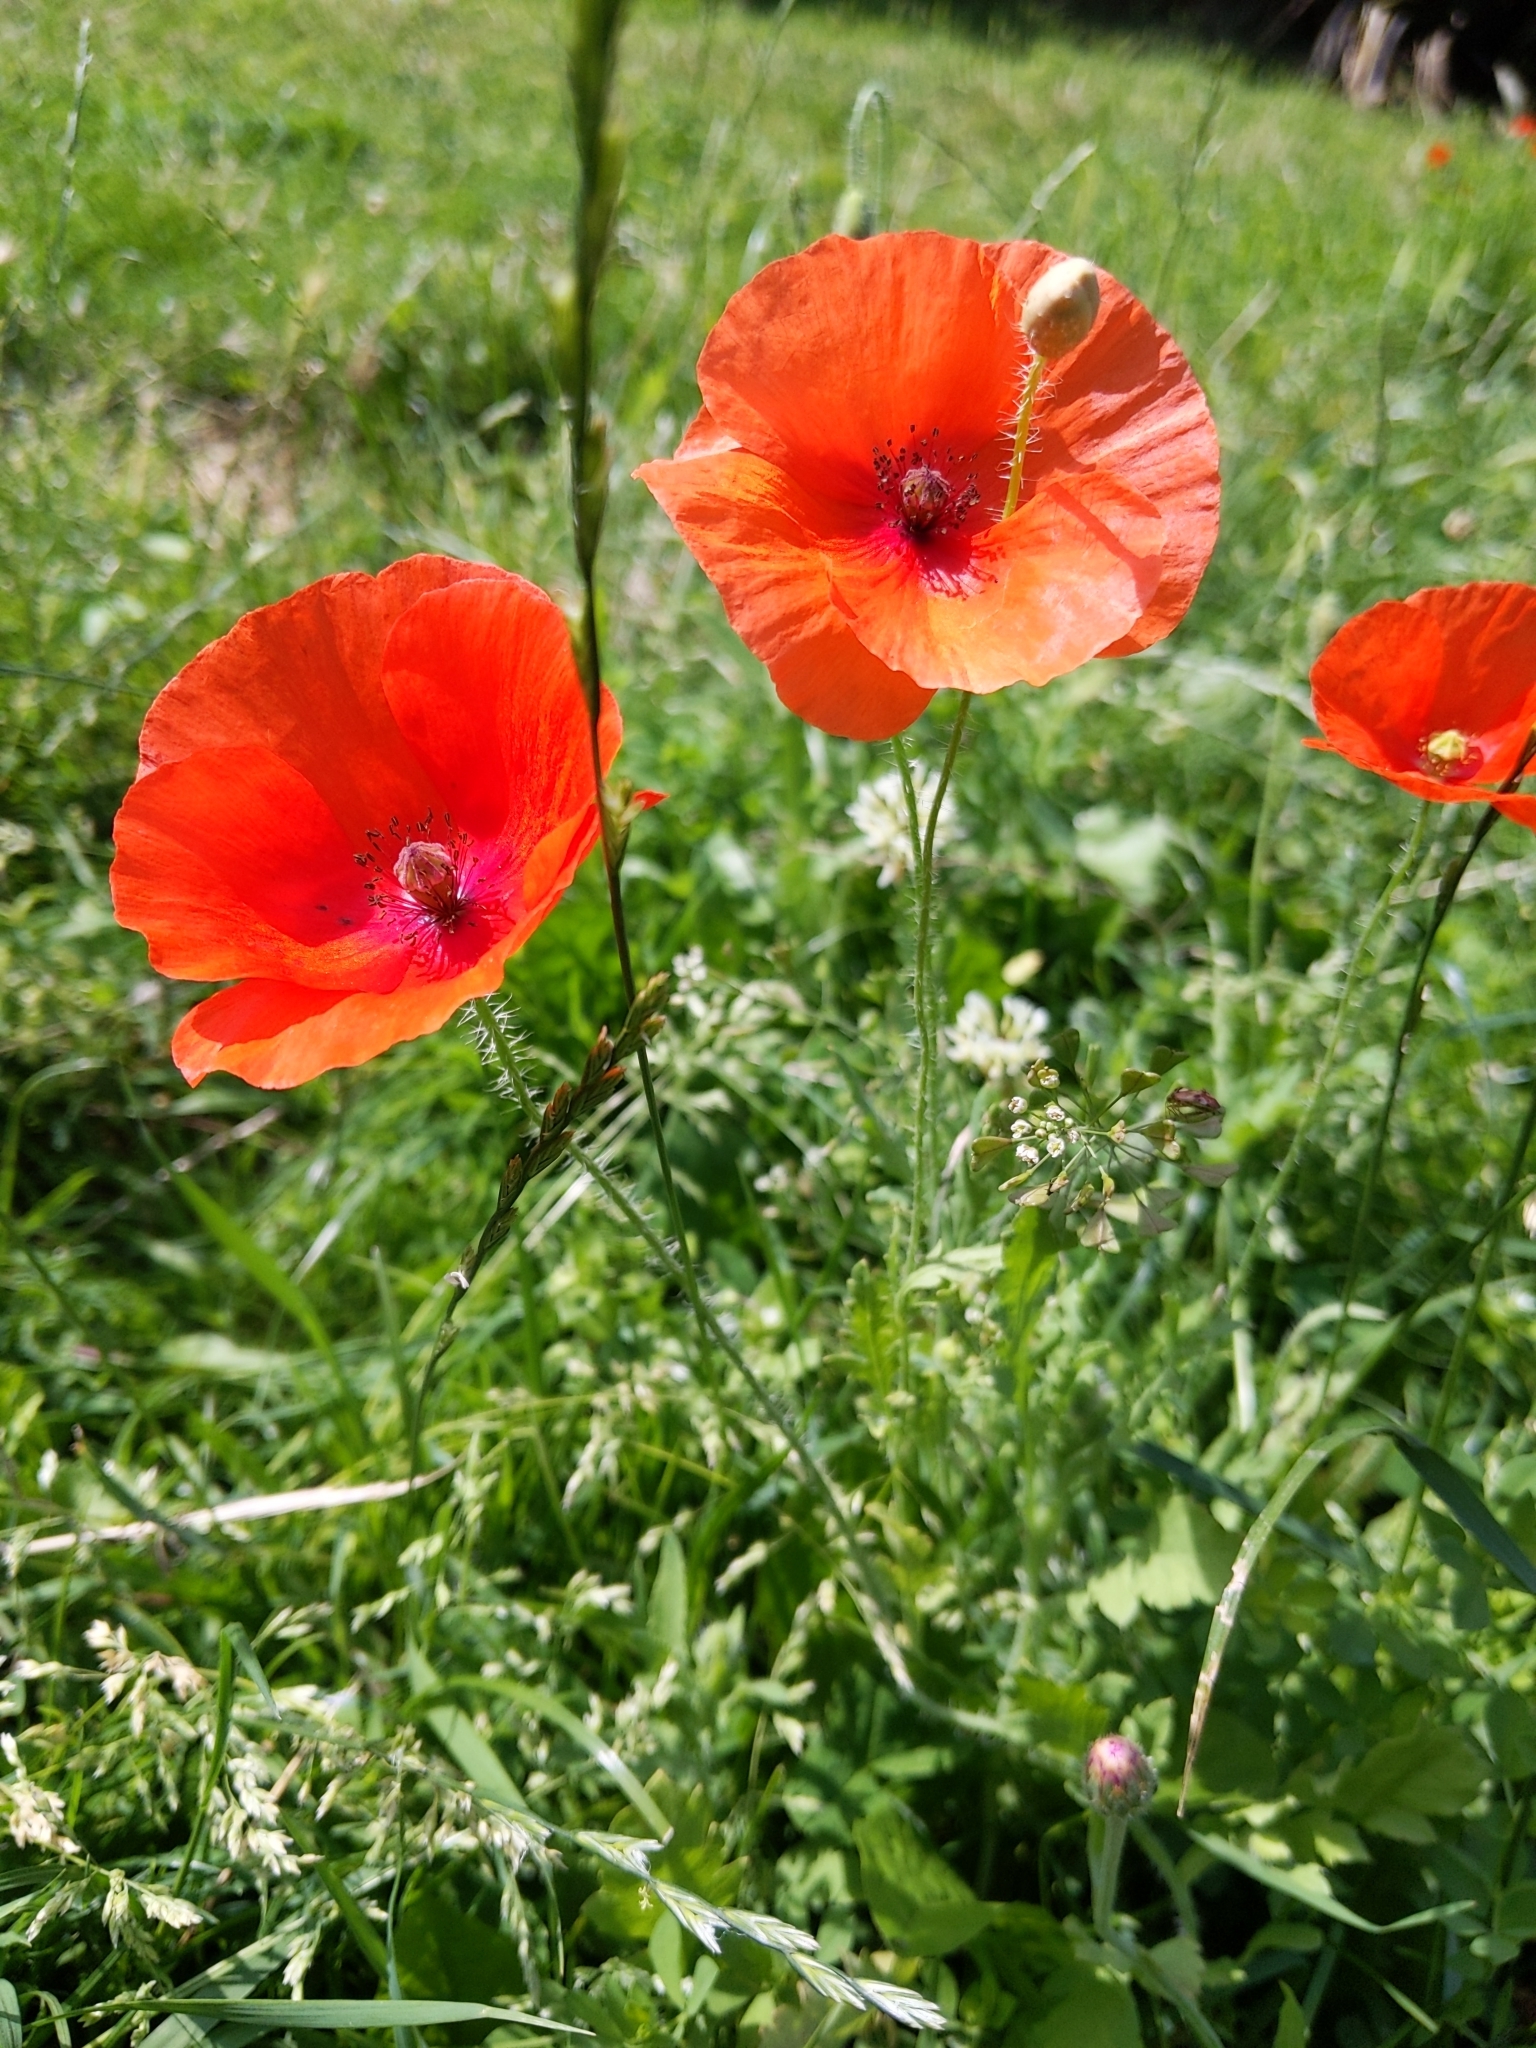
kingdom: Plantae
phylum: Tracheophyta
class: Magnoliopsida
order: Ranunculales
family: Papaveraceae
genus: Papaver
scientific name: Papaver rhoeas
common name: Corn poppy
